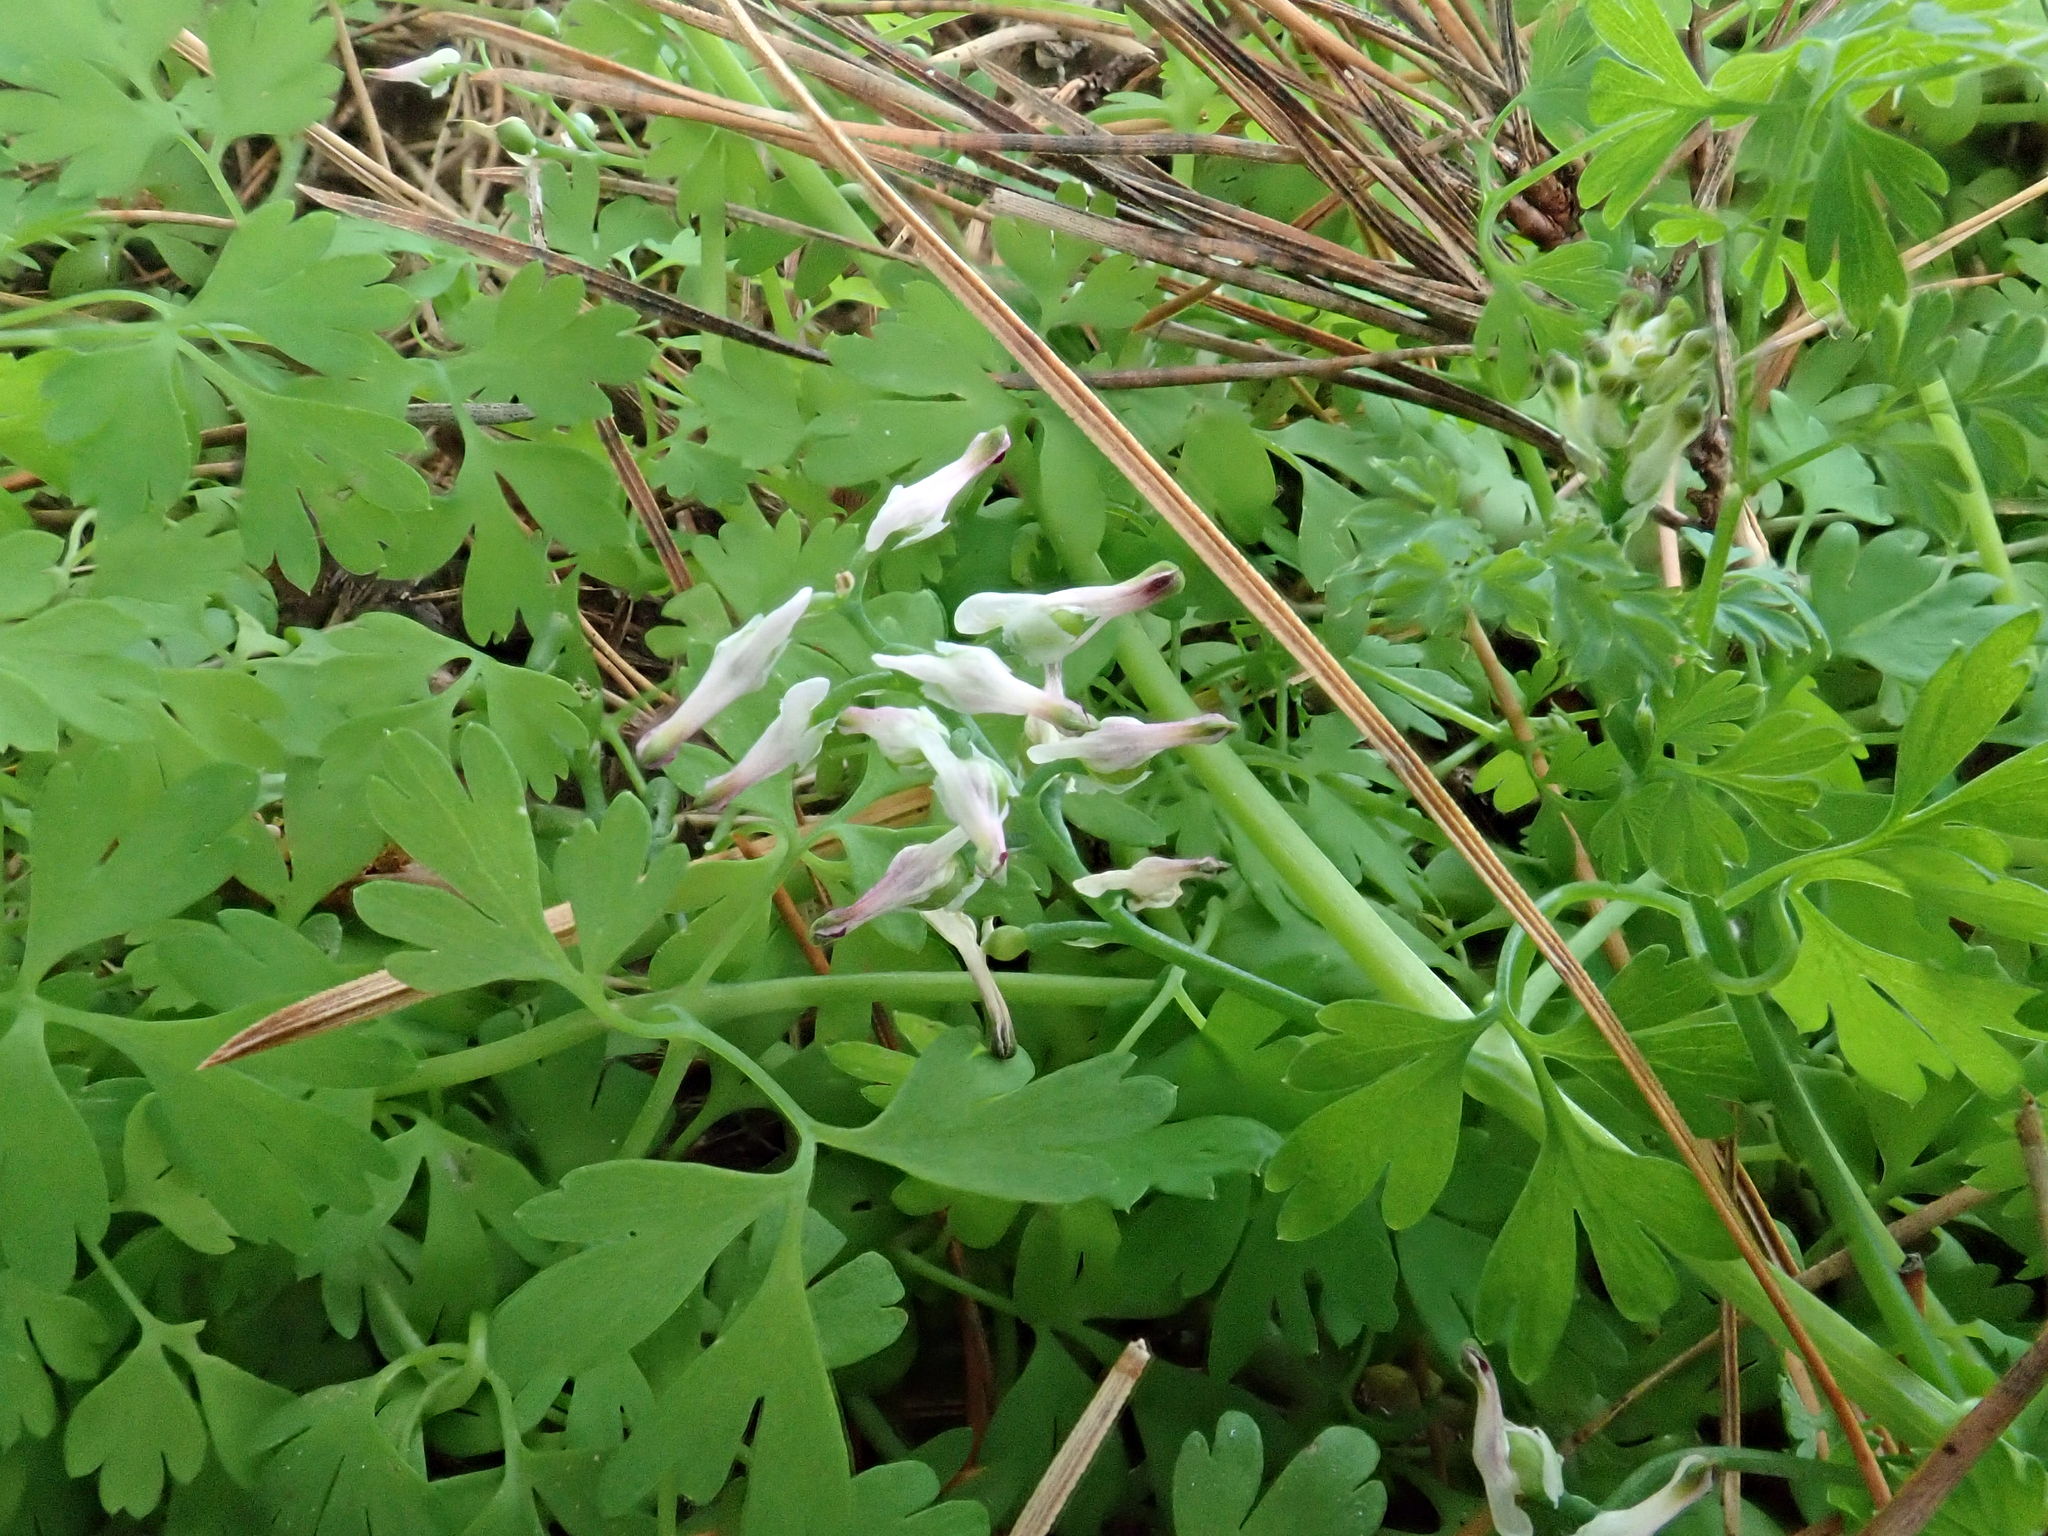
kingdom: Plantae
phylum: Tracheophyta
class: Magnoliopsida
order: Ranunculales
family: Papaveraceae
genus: Fumaria
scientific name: Fumaria
